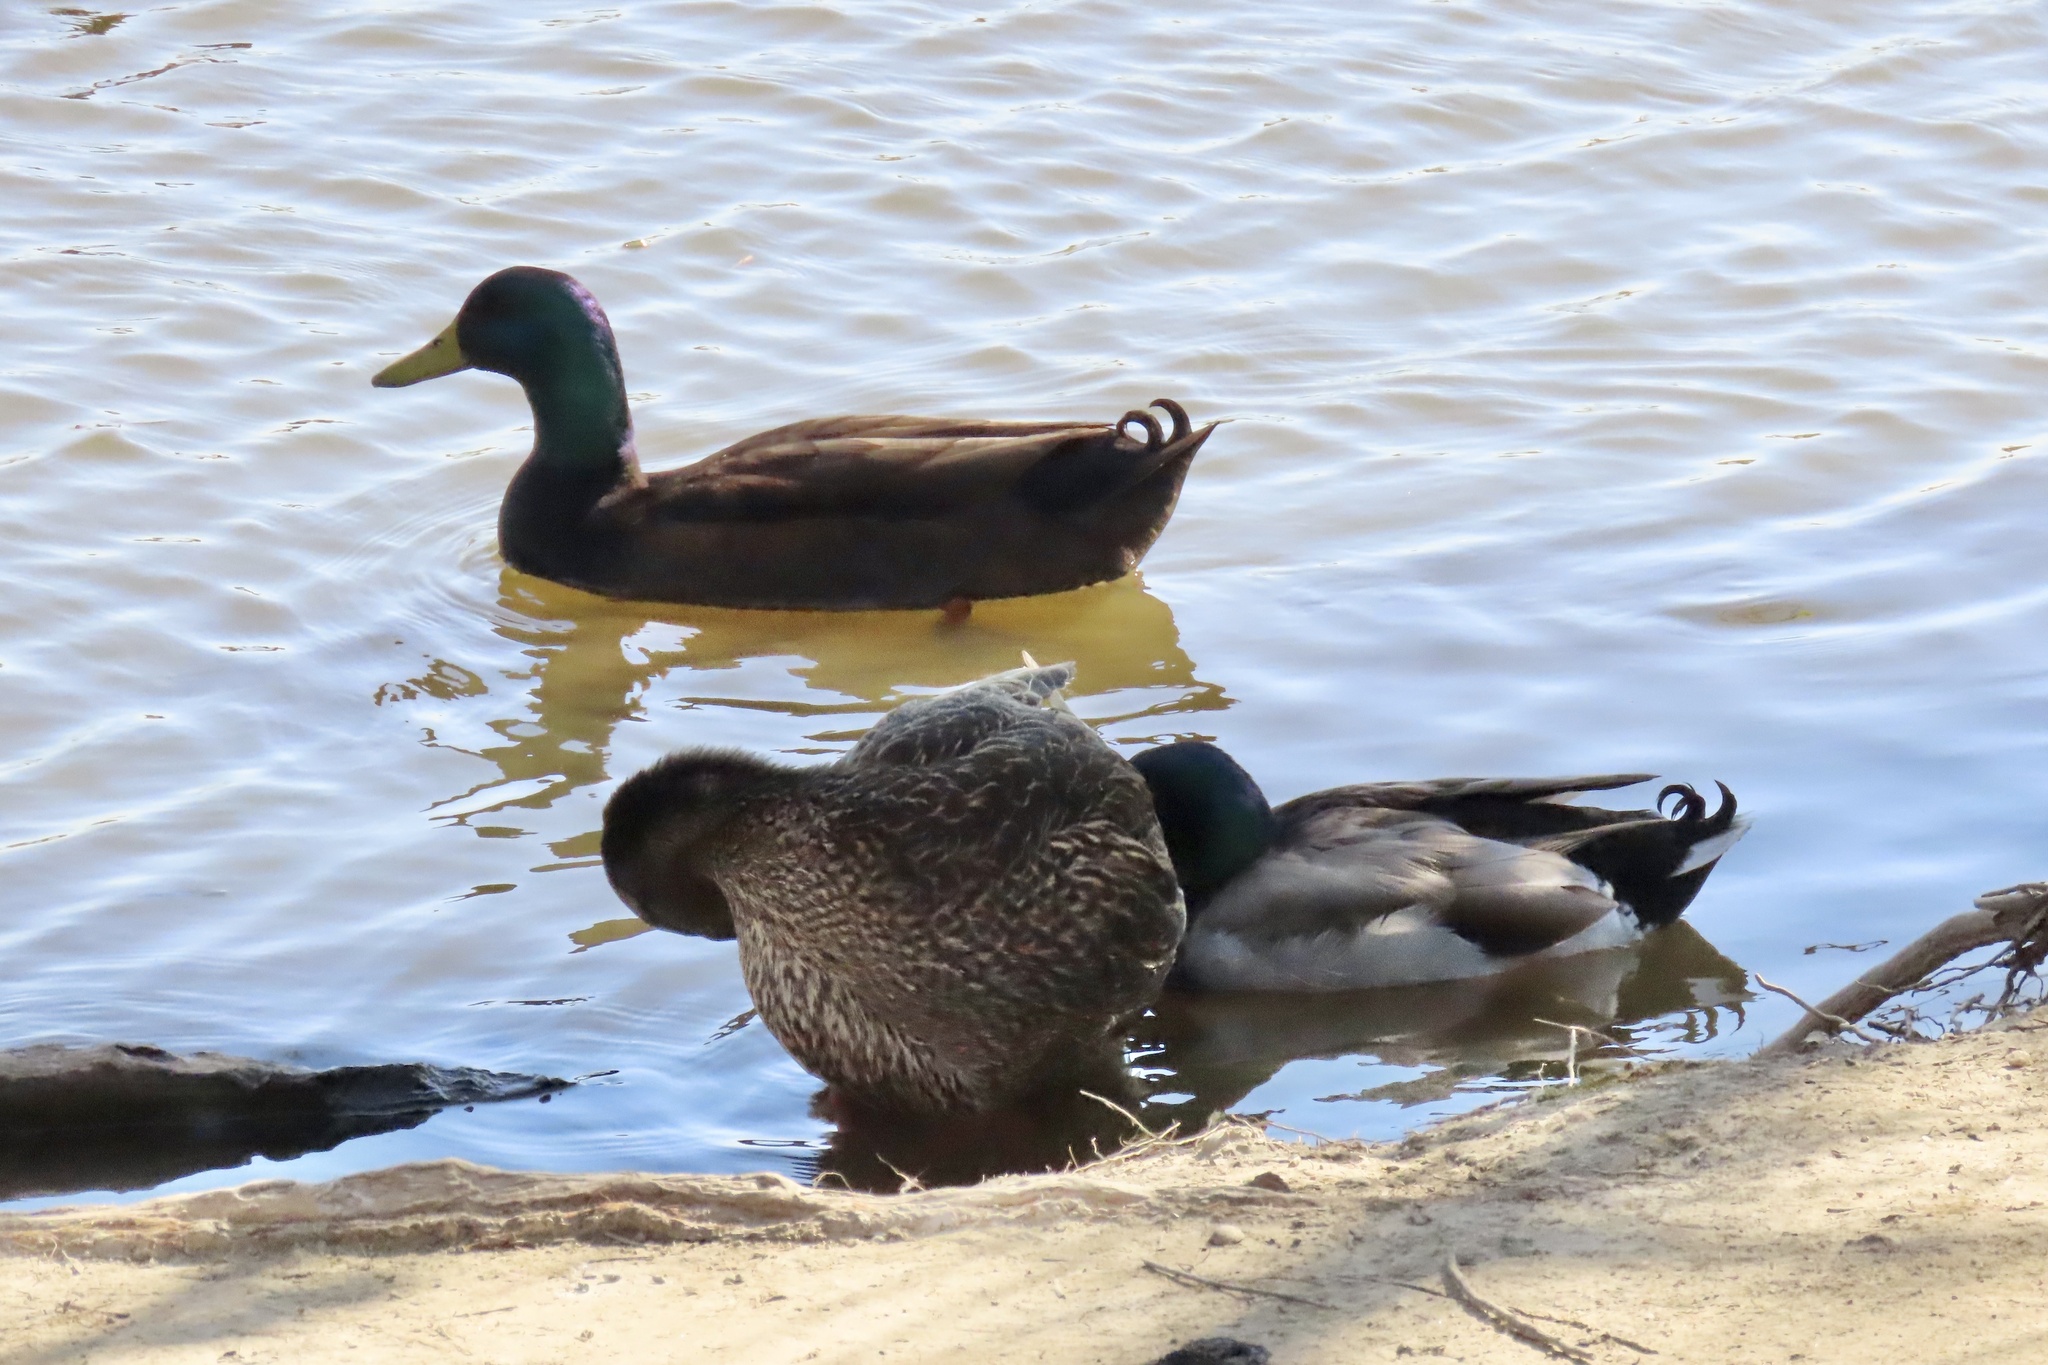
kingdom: Animalia
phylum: Chordata
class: Aves
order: Anseriformes
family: Anatidae
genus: Anas
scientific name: Anas platyrhynchos
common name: Mallard
